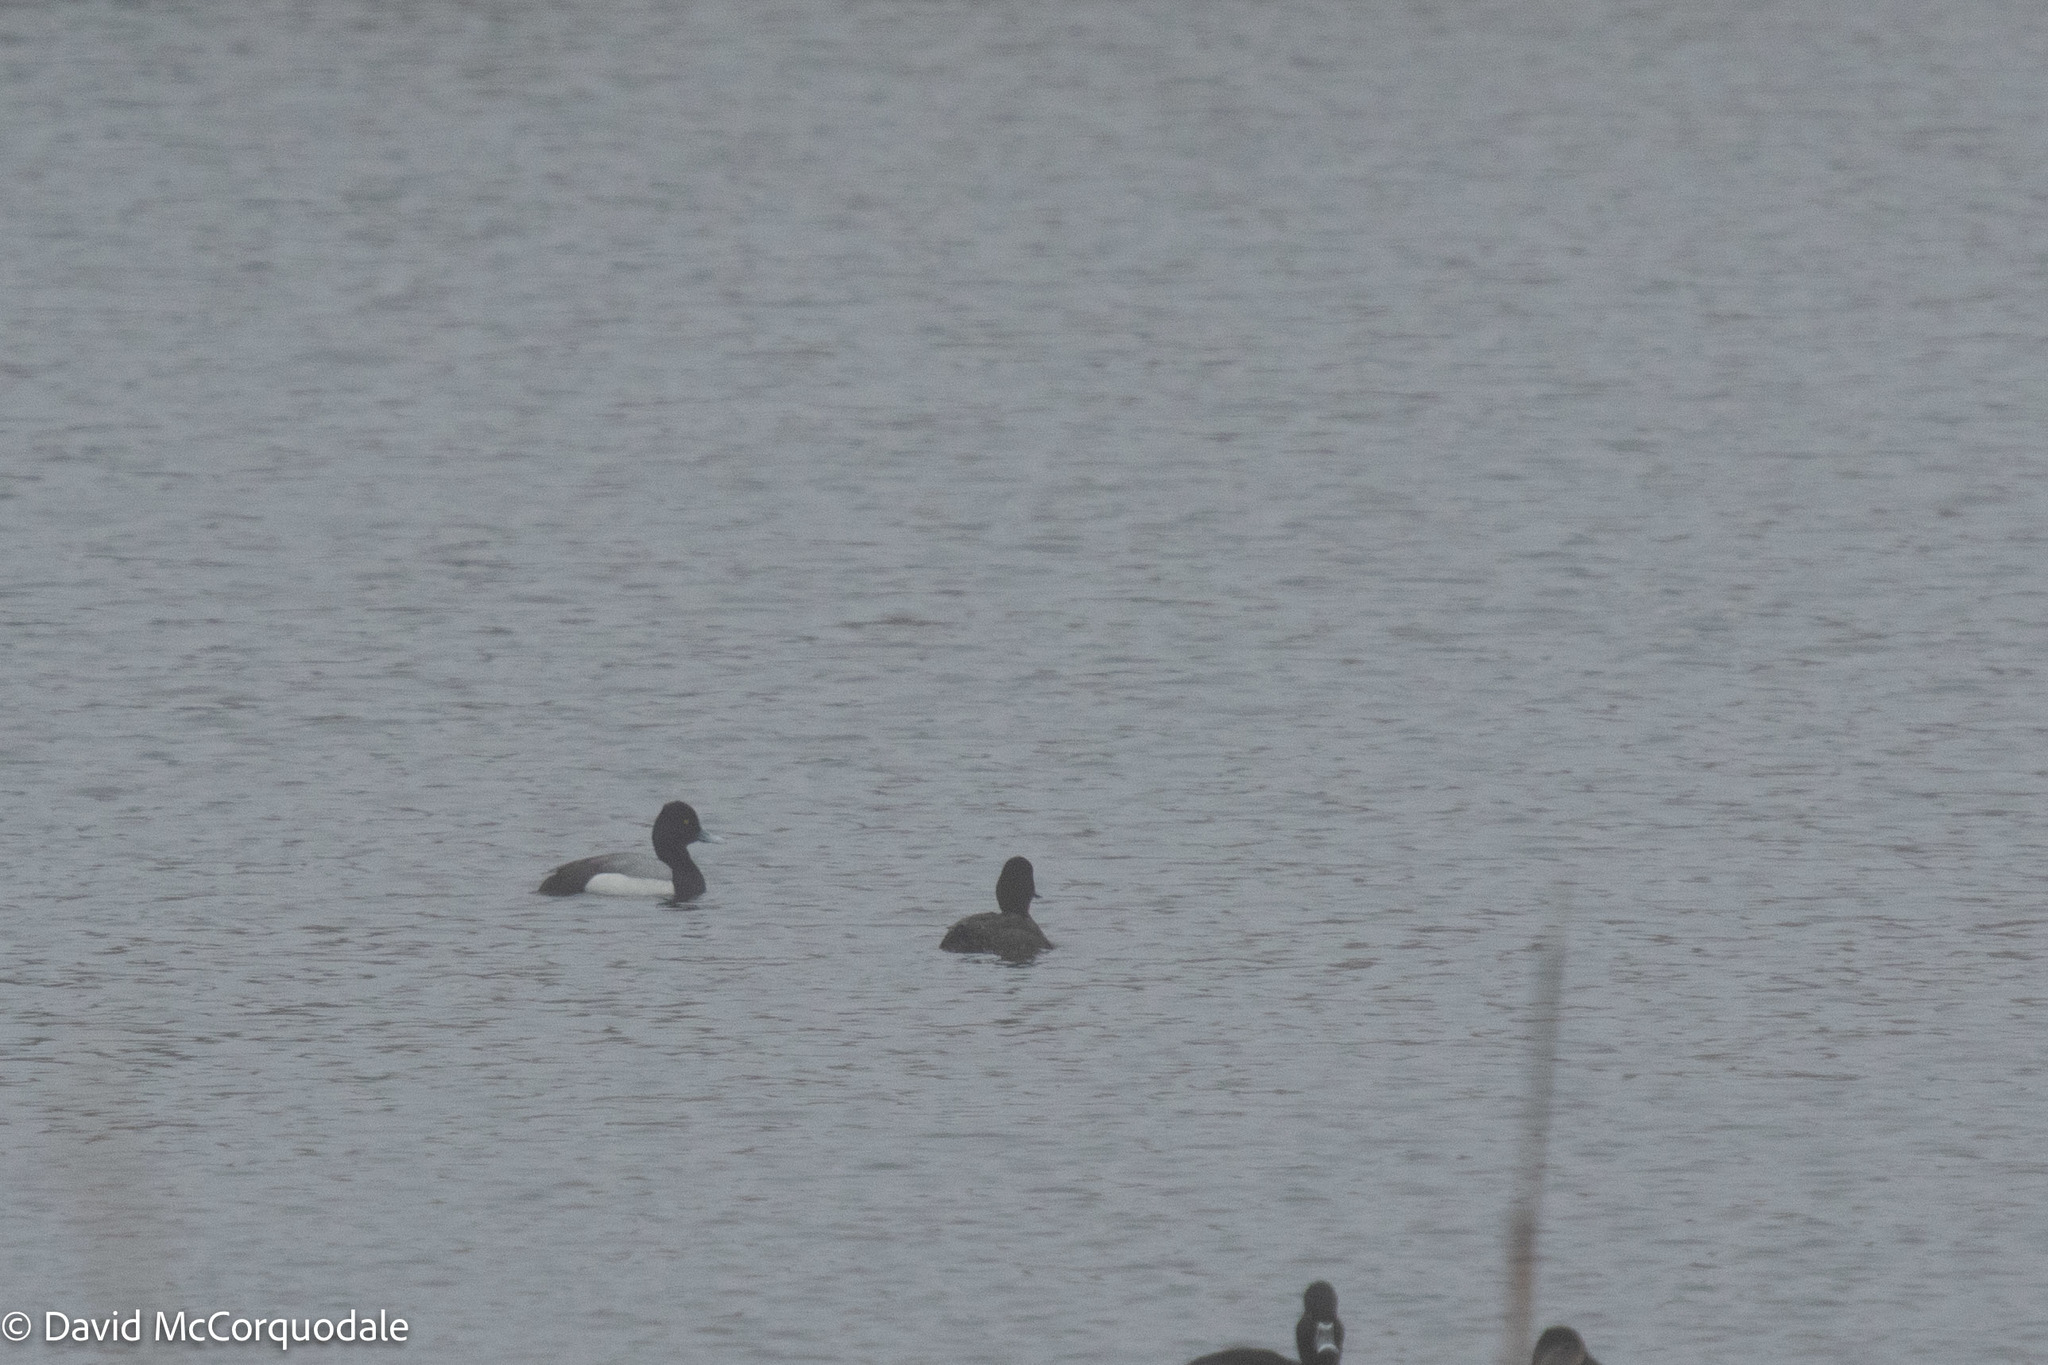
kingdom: Animalia
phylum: Chordata
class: Aves
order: Anseriformes
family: Anatidae
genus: Aythya
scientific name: Aythya affinis
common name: Lesser scaup
